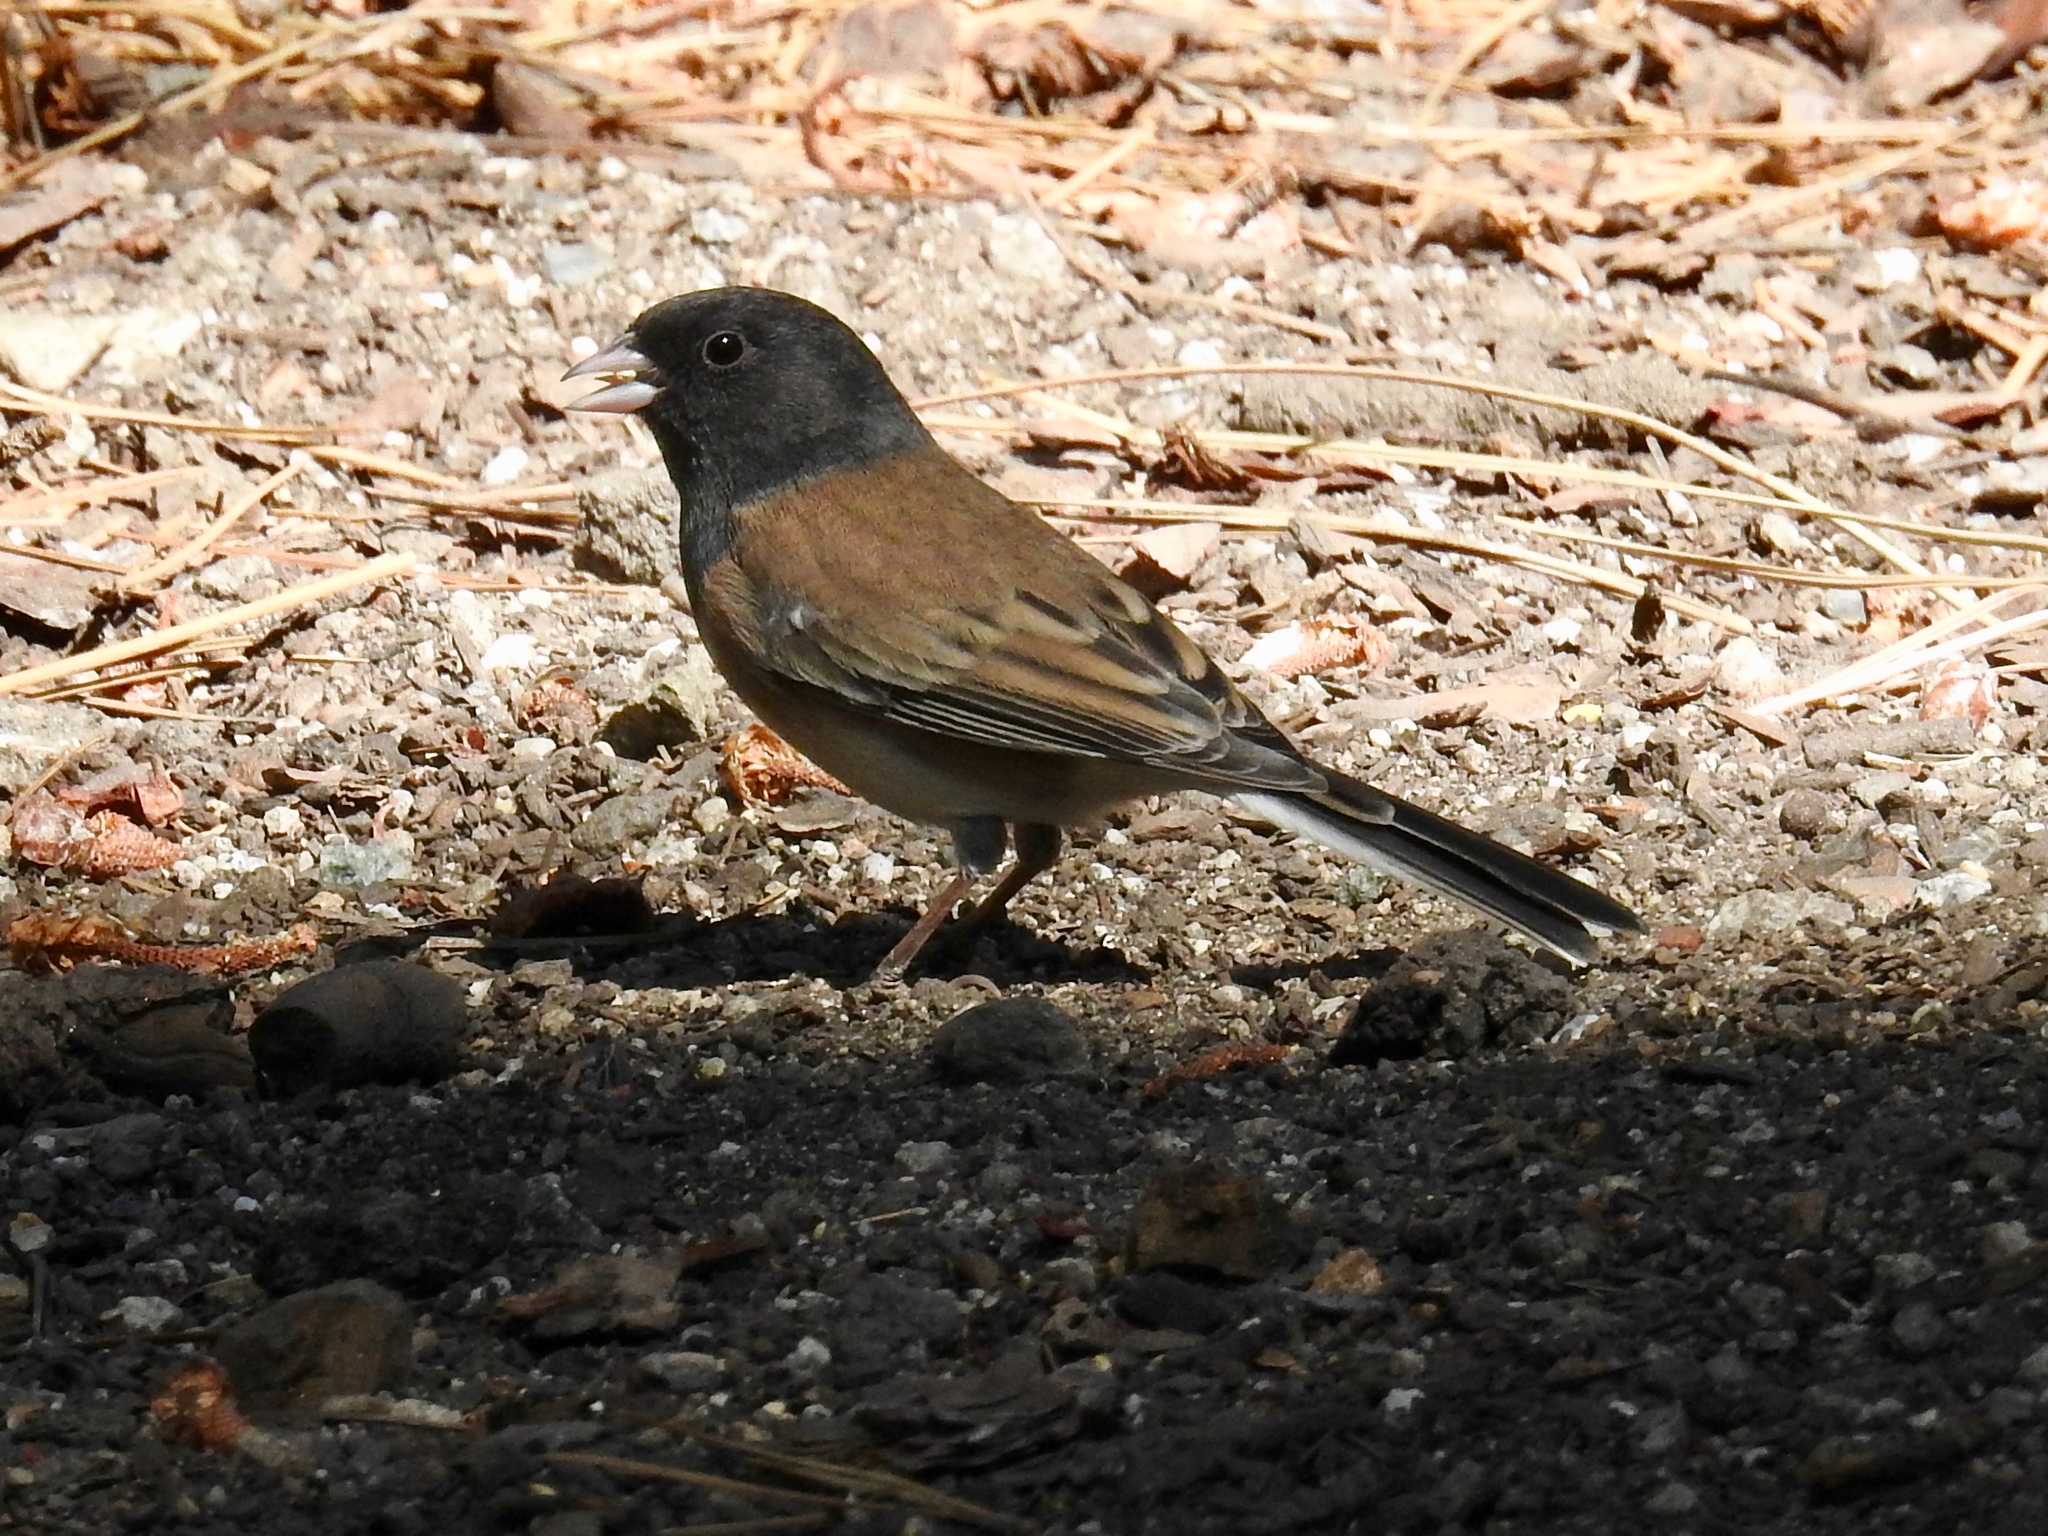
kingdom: Animalia
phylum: Chordata
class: Aves
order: Passeriformes
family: Passerellidae
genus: Junco
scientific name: Junco hyemalis
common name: Dark-eyed junco
